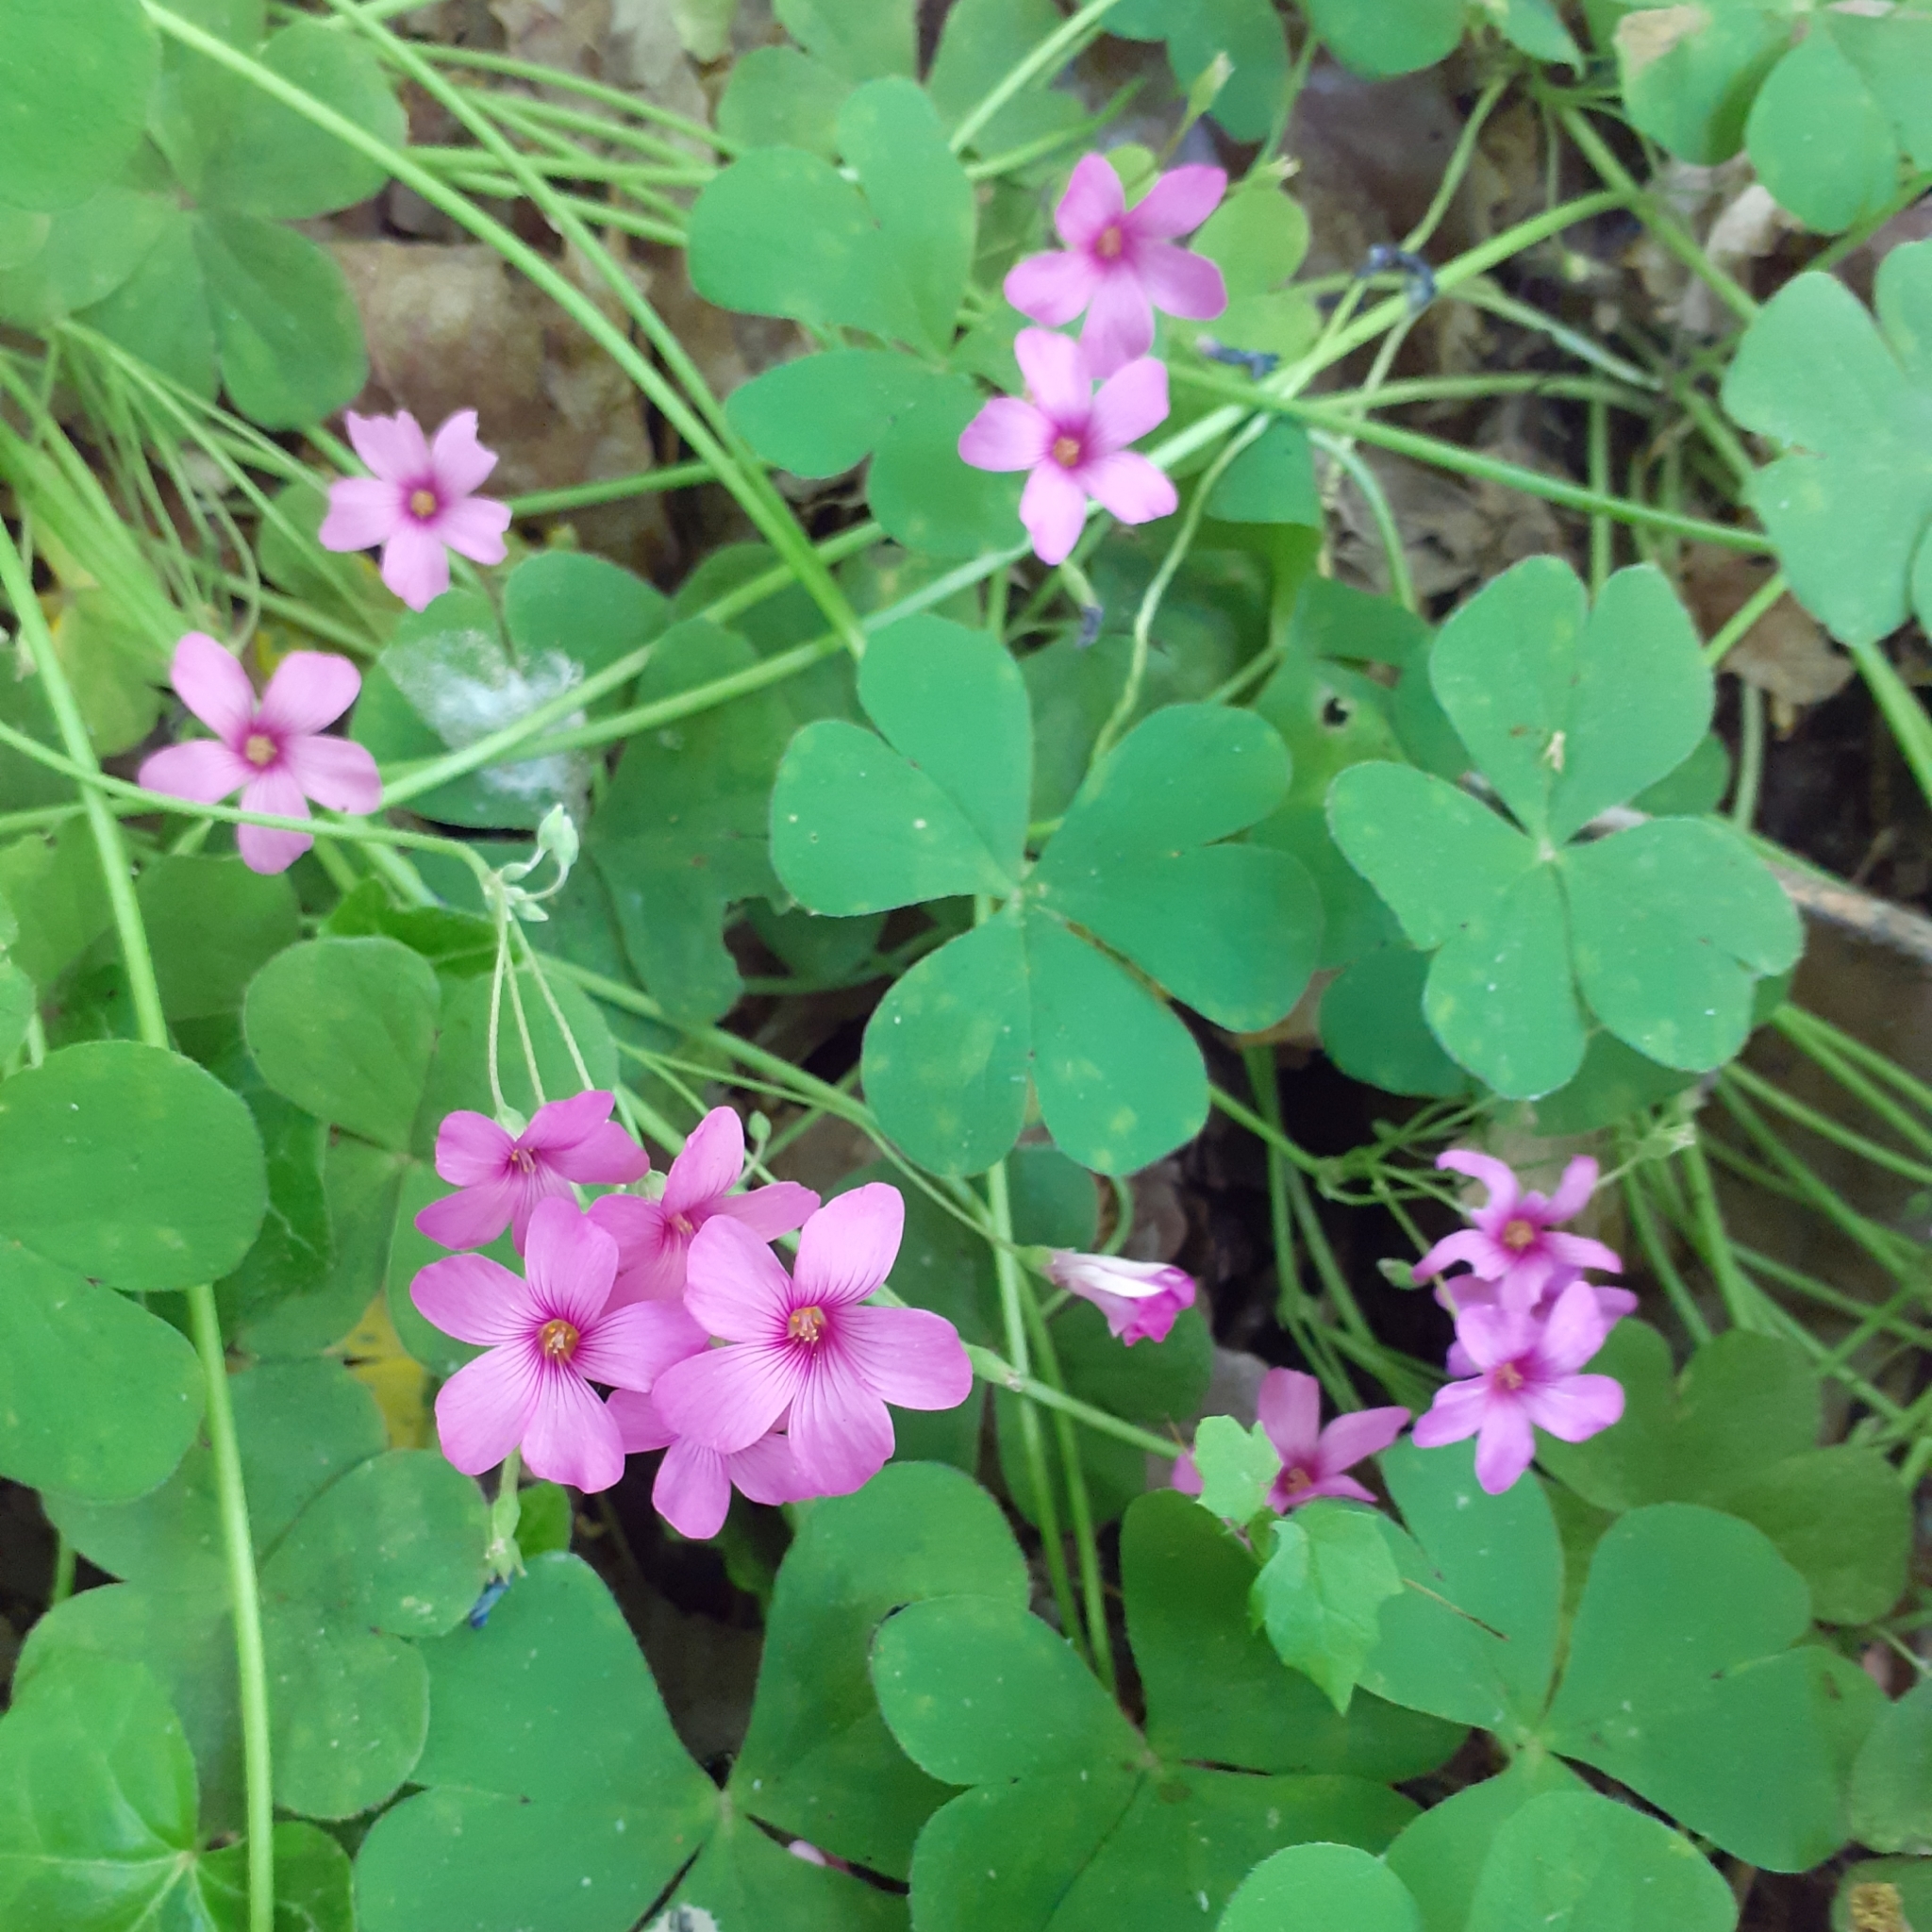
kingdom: Plantae
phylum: Tracheophyta
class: Magnoliopsida
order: Oxalidales
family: Oxalidaceae
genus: Oxalis
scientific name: Oxalis articulata
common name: Pink-sorrel
